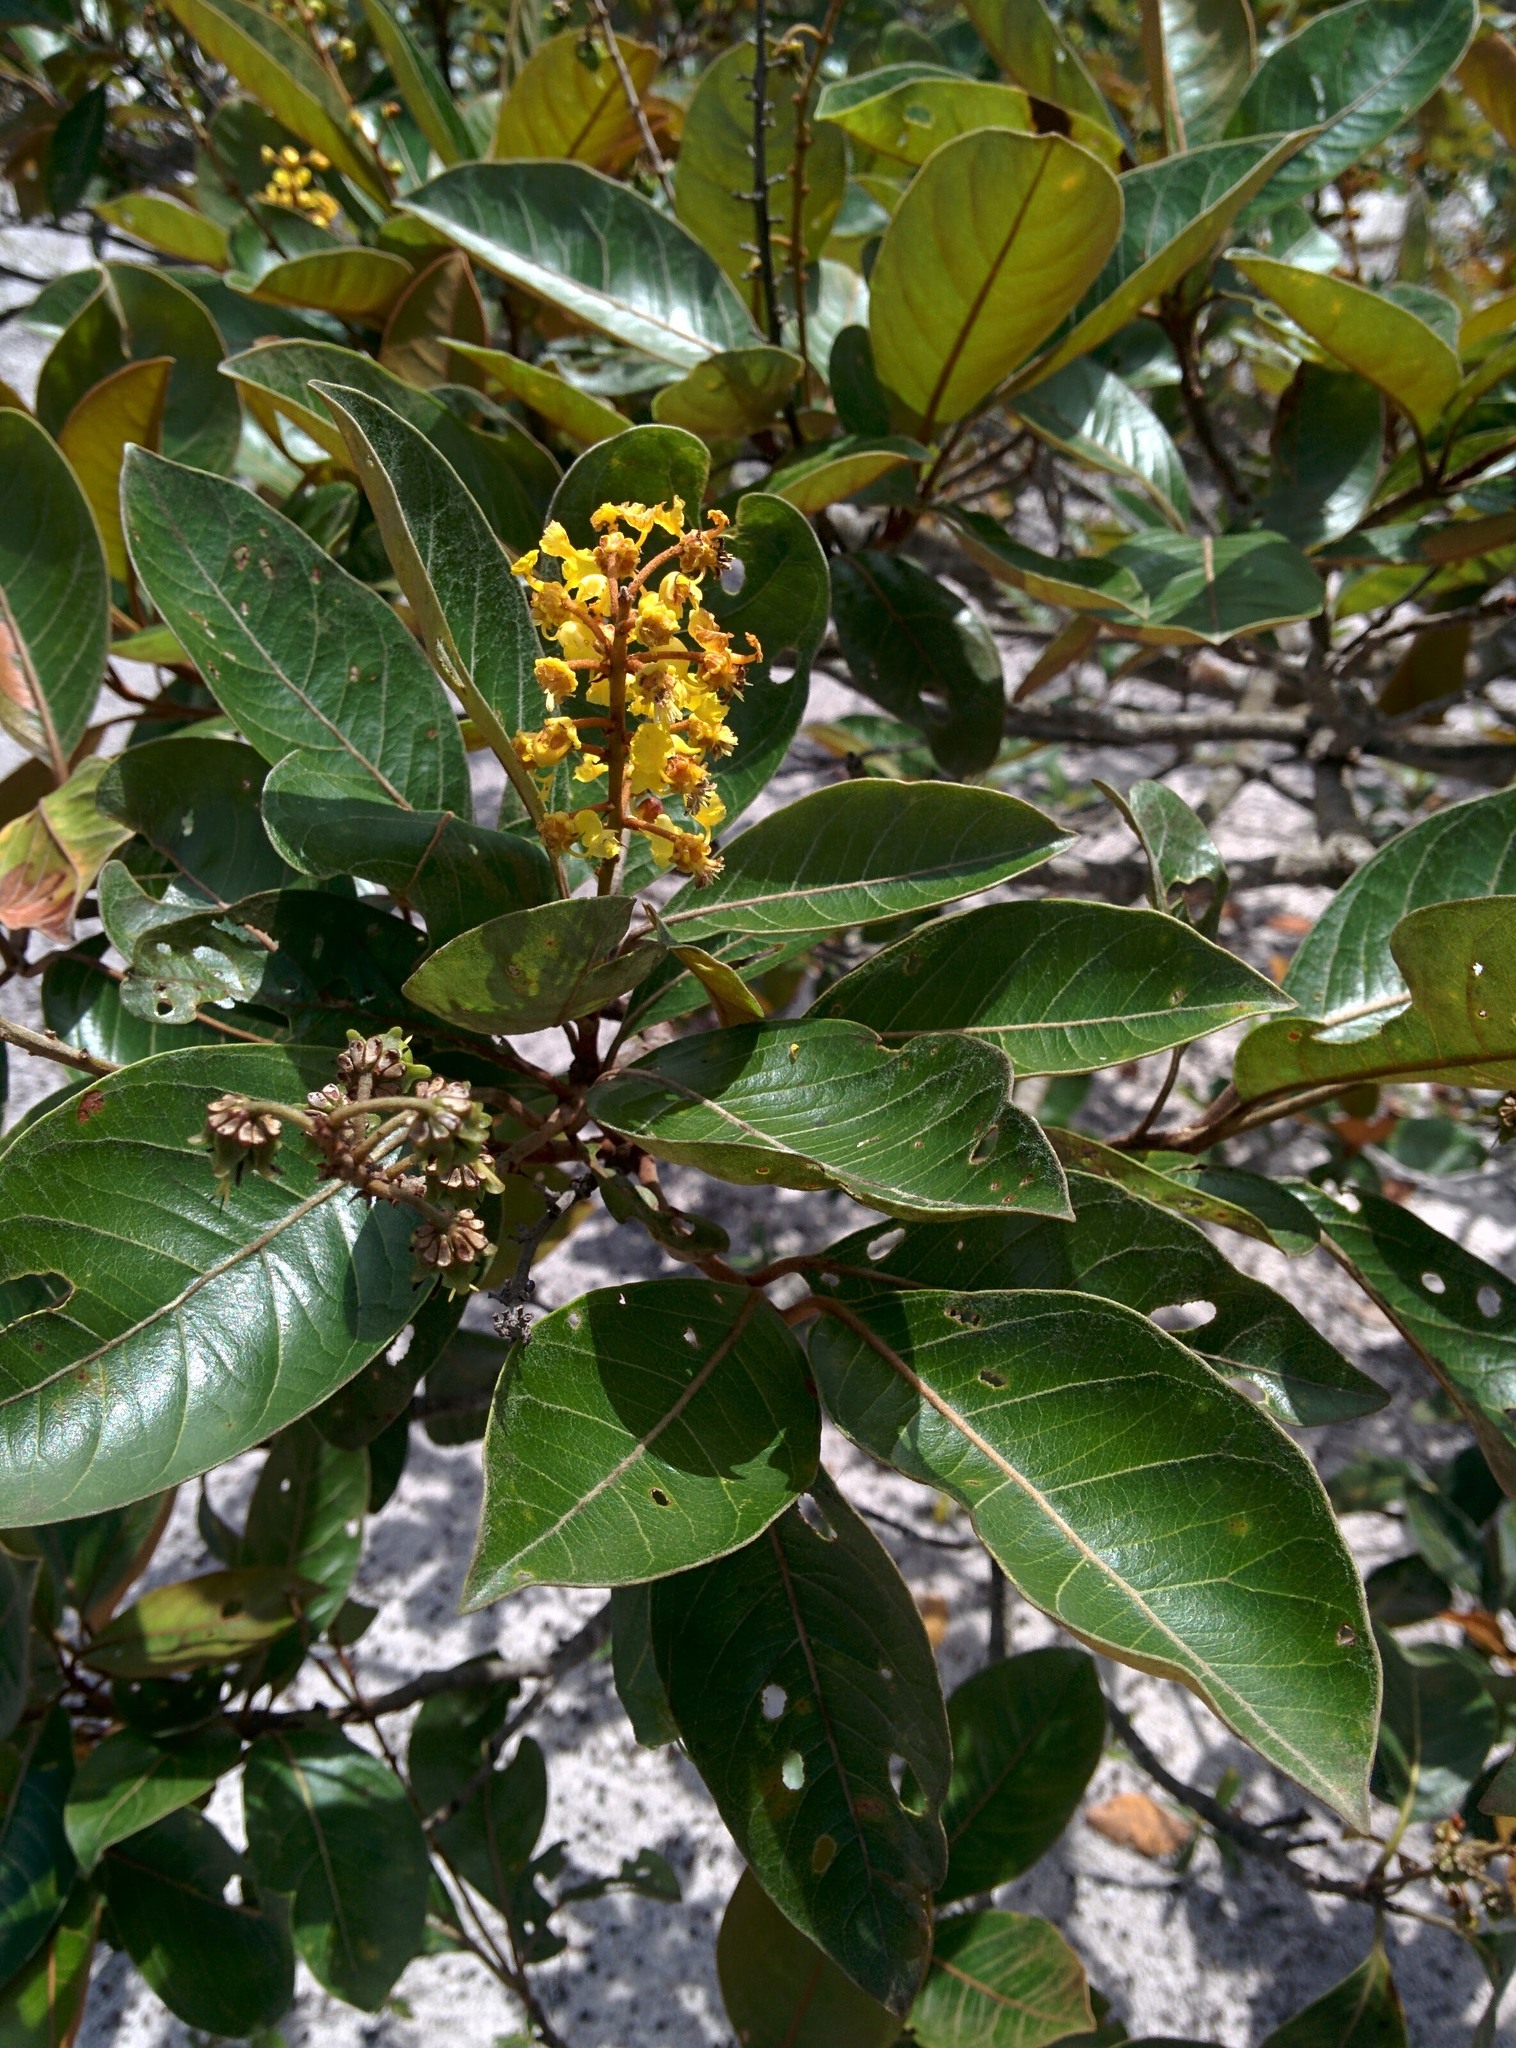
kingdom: Plantae
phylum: Tracheophyta
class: Magnoliopsida
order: Malpighiales
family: Malpighiaceae
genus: Byrsonima
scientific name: Byrsonima crassifolia
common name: Golden spoon
